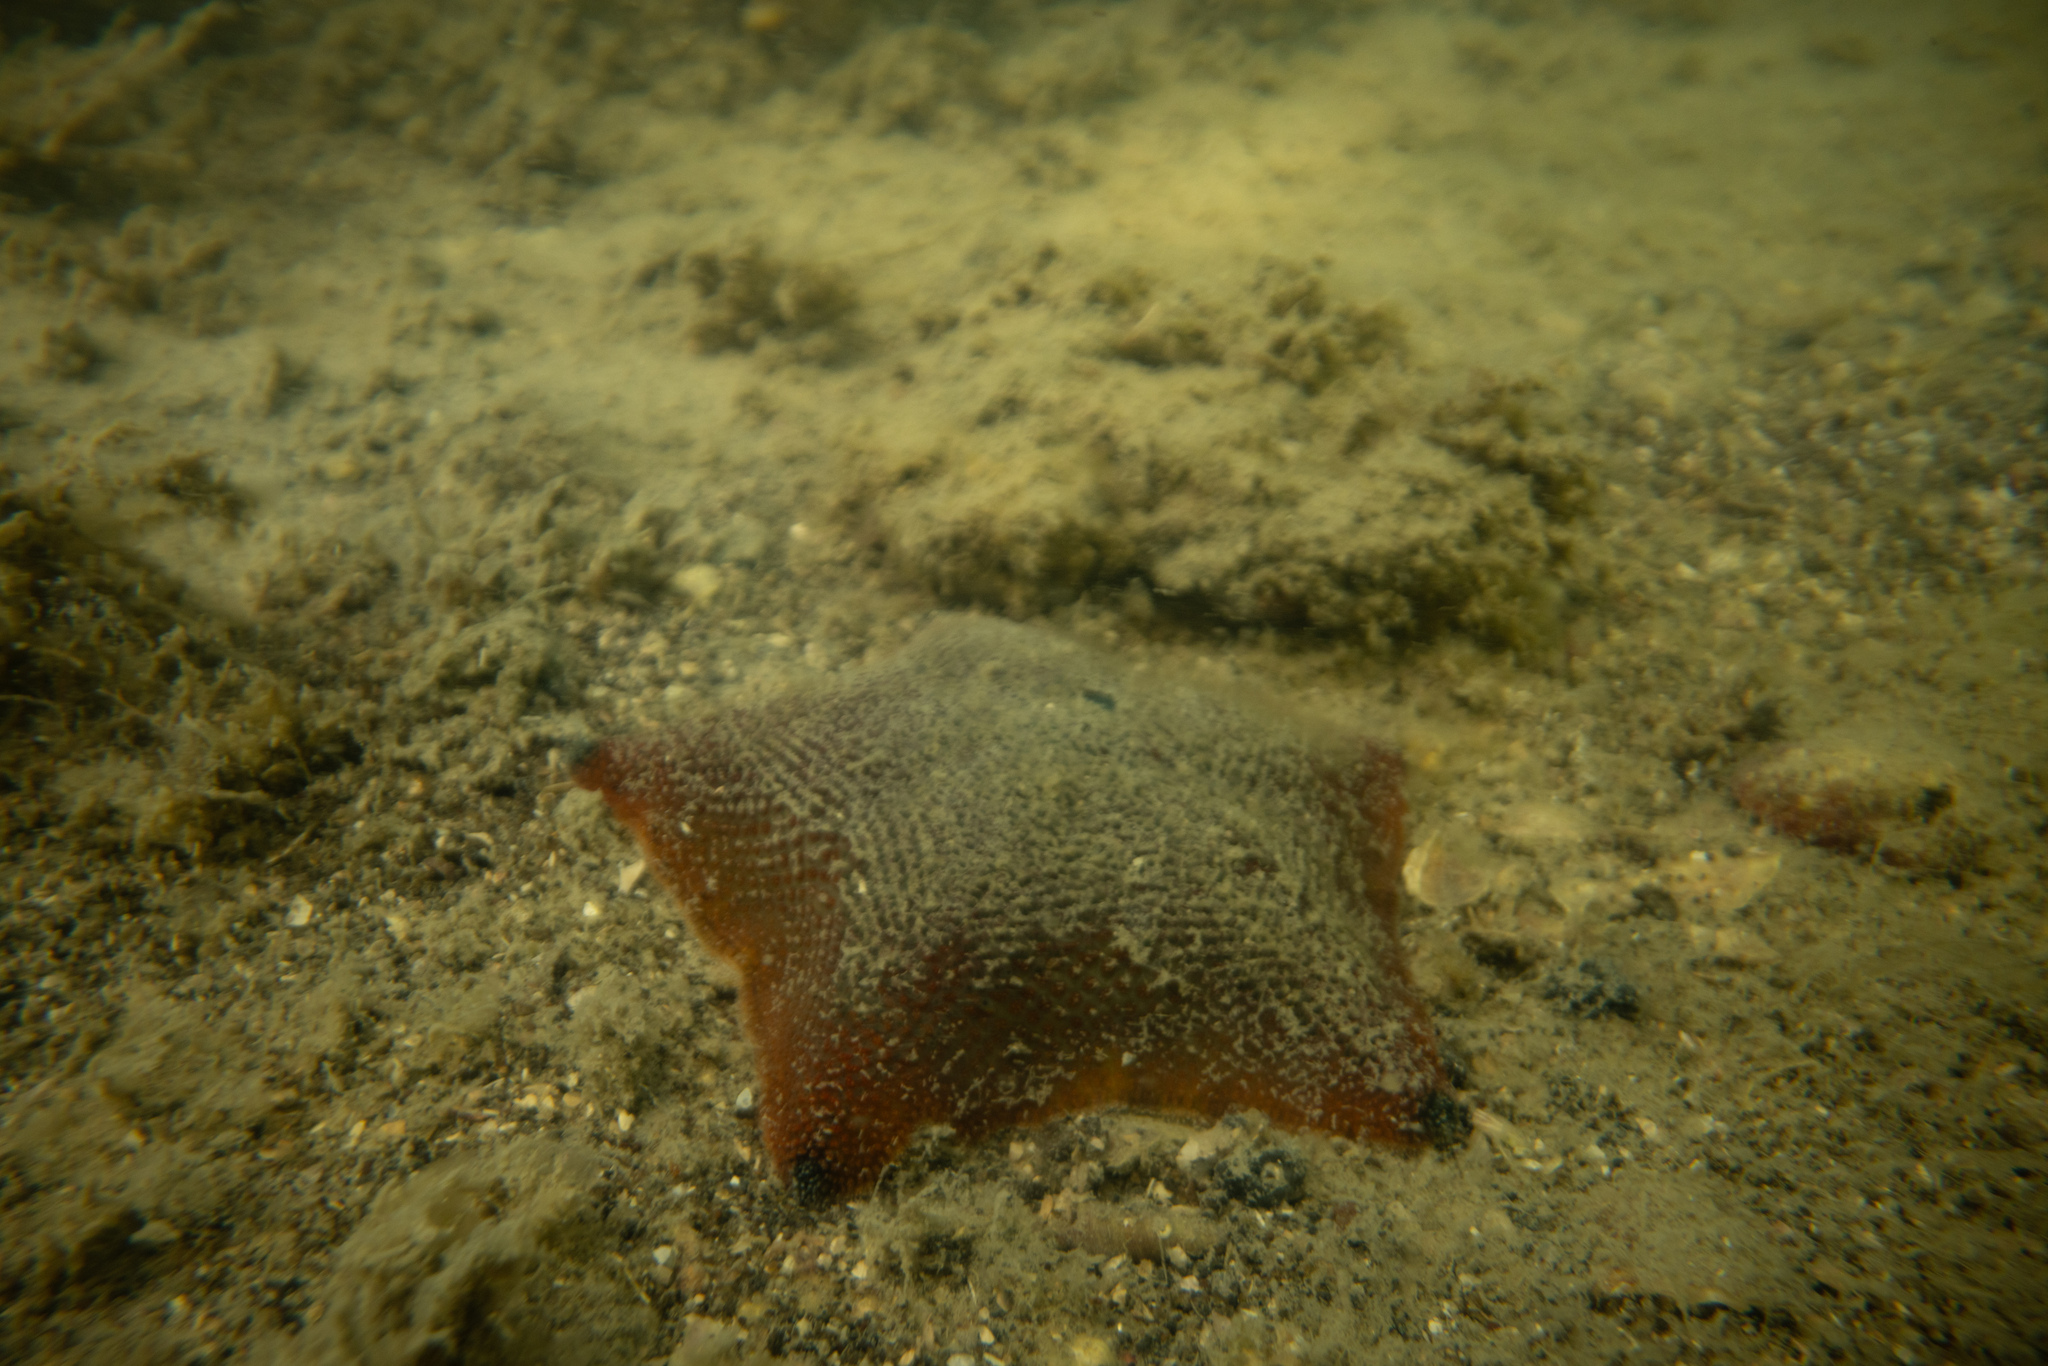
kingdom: Animalia
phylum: Echinodermata
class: Asteroidea
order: Valvatida
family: Asterinidae
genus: Patiriella
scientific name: Patiriella regularis
